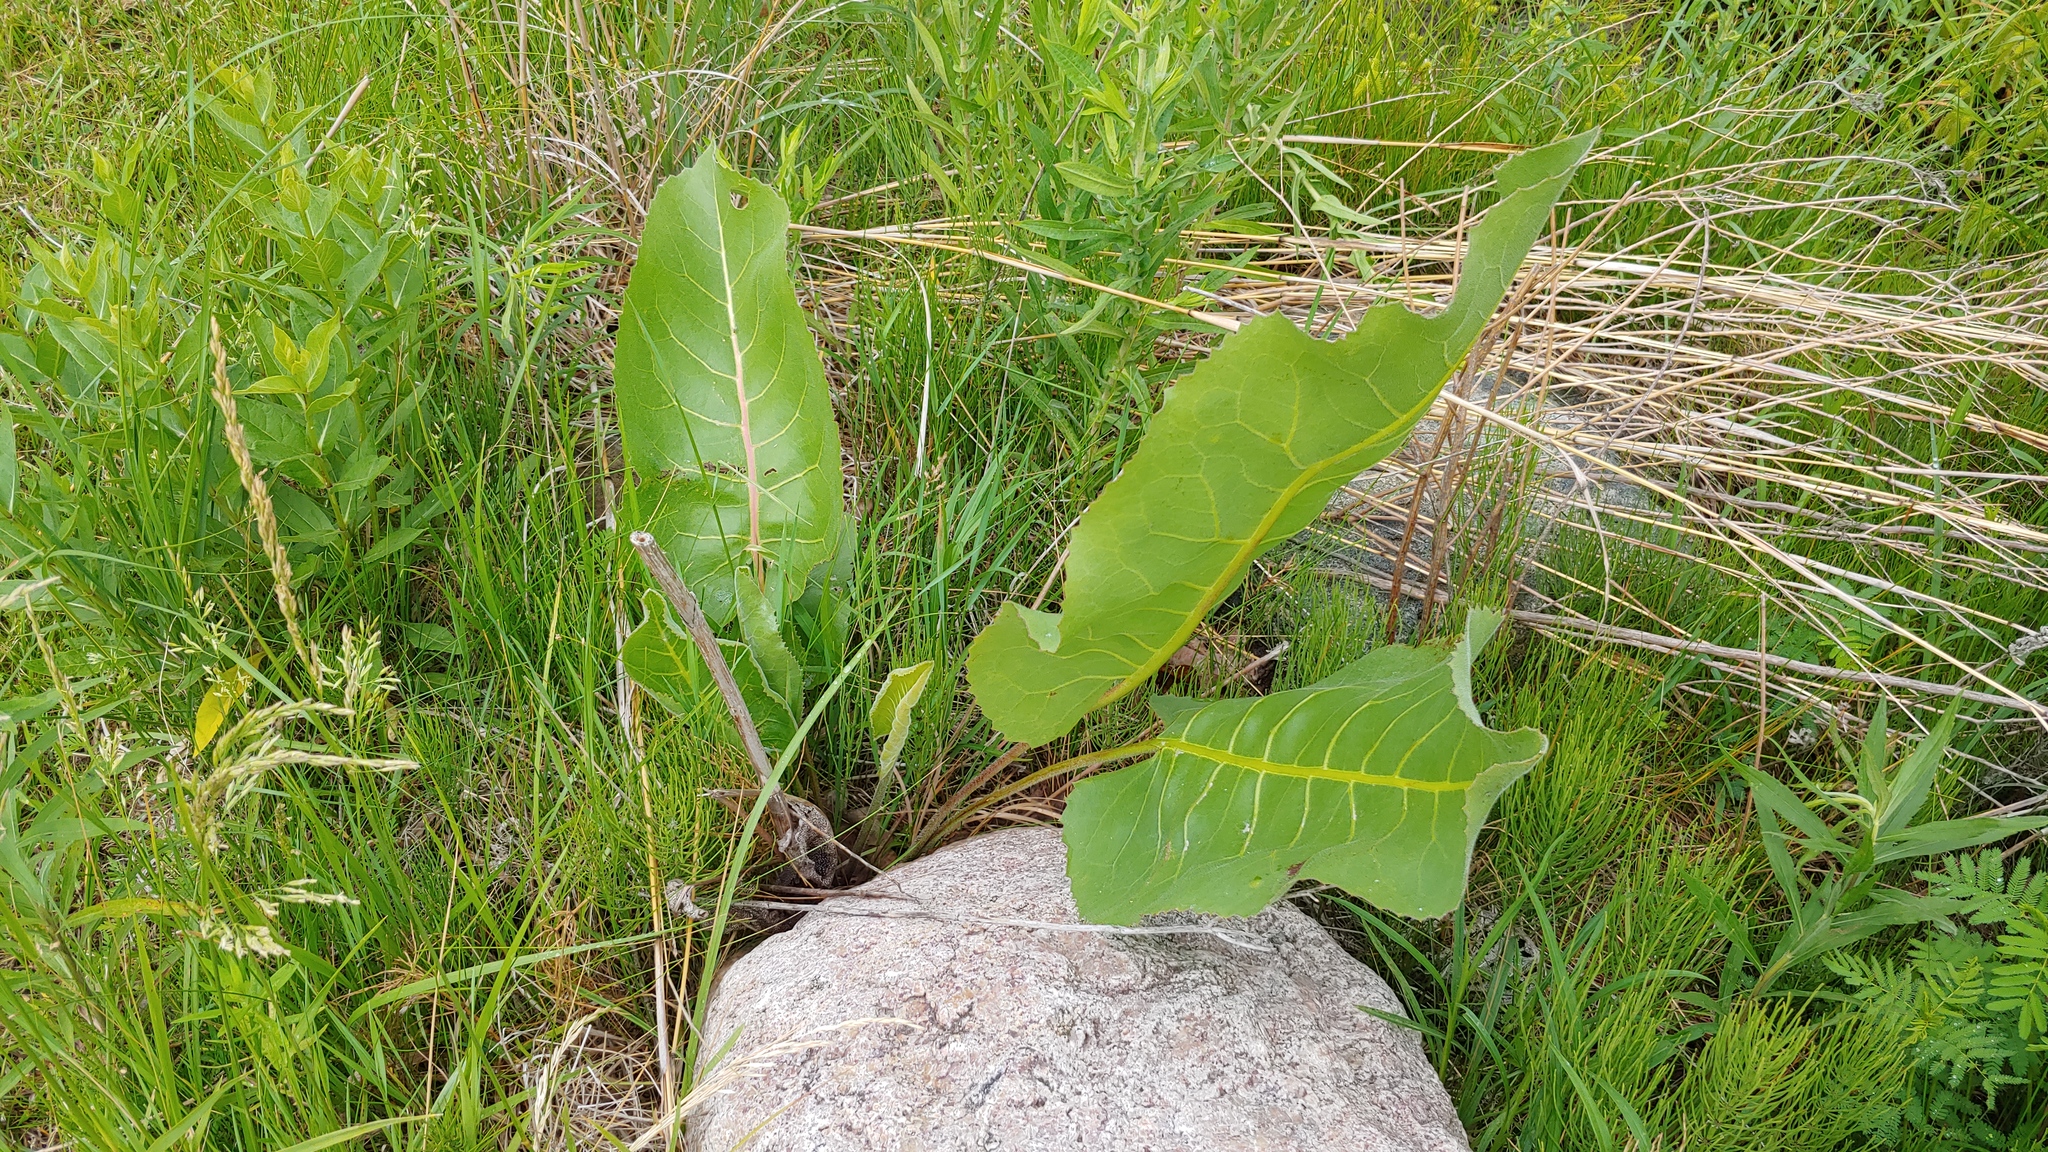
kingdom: Plantae
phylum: Tracheophyta
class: Magnoliopsida
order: Asterales
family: Asteraceae
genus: Silphium
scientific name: Silphium terebinthinaceum
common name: Basal-leaf rosinweed
